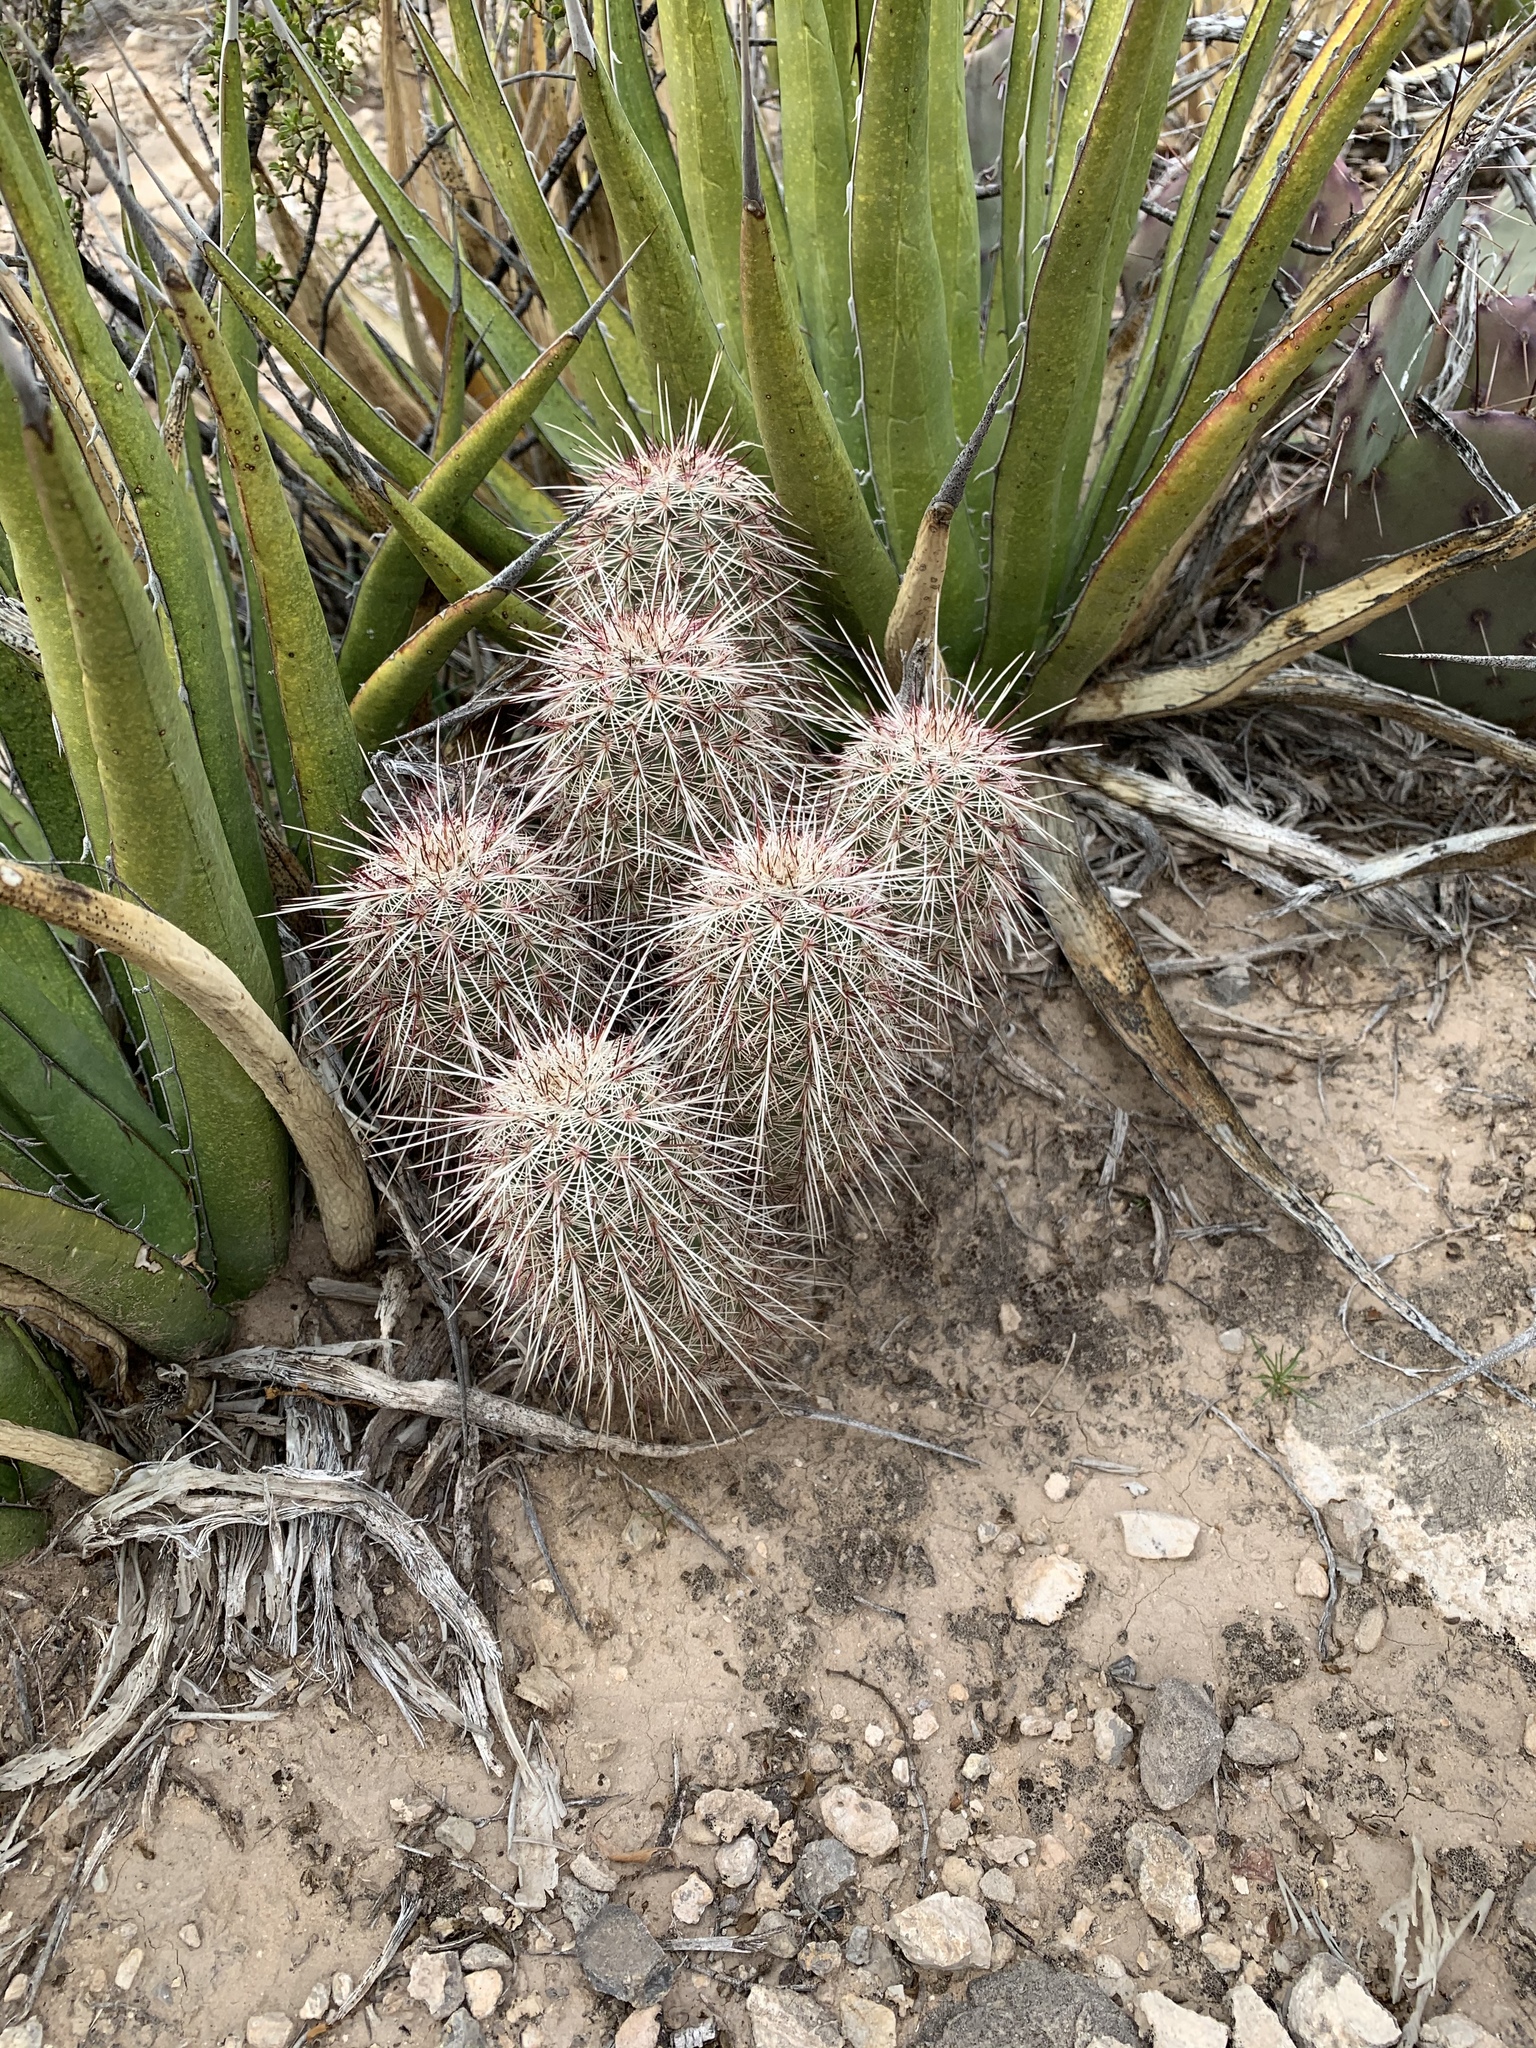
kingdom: Plantae
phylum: Tracheophyta
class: Magnoliopsida
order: Caryophyllales
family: Cactaceae
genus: Echinocereus
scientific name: Echinocereus viridiflorus
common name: Nylon hedgehog cactus
